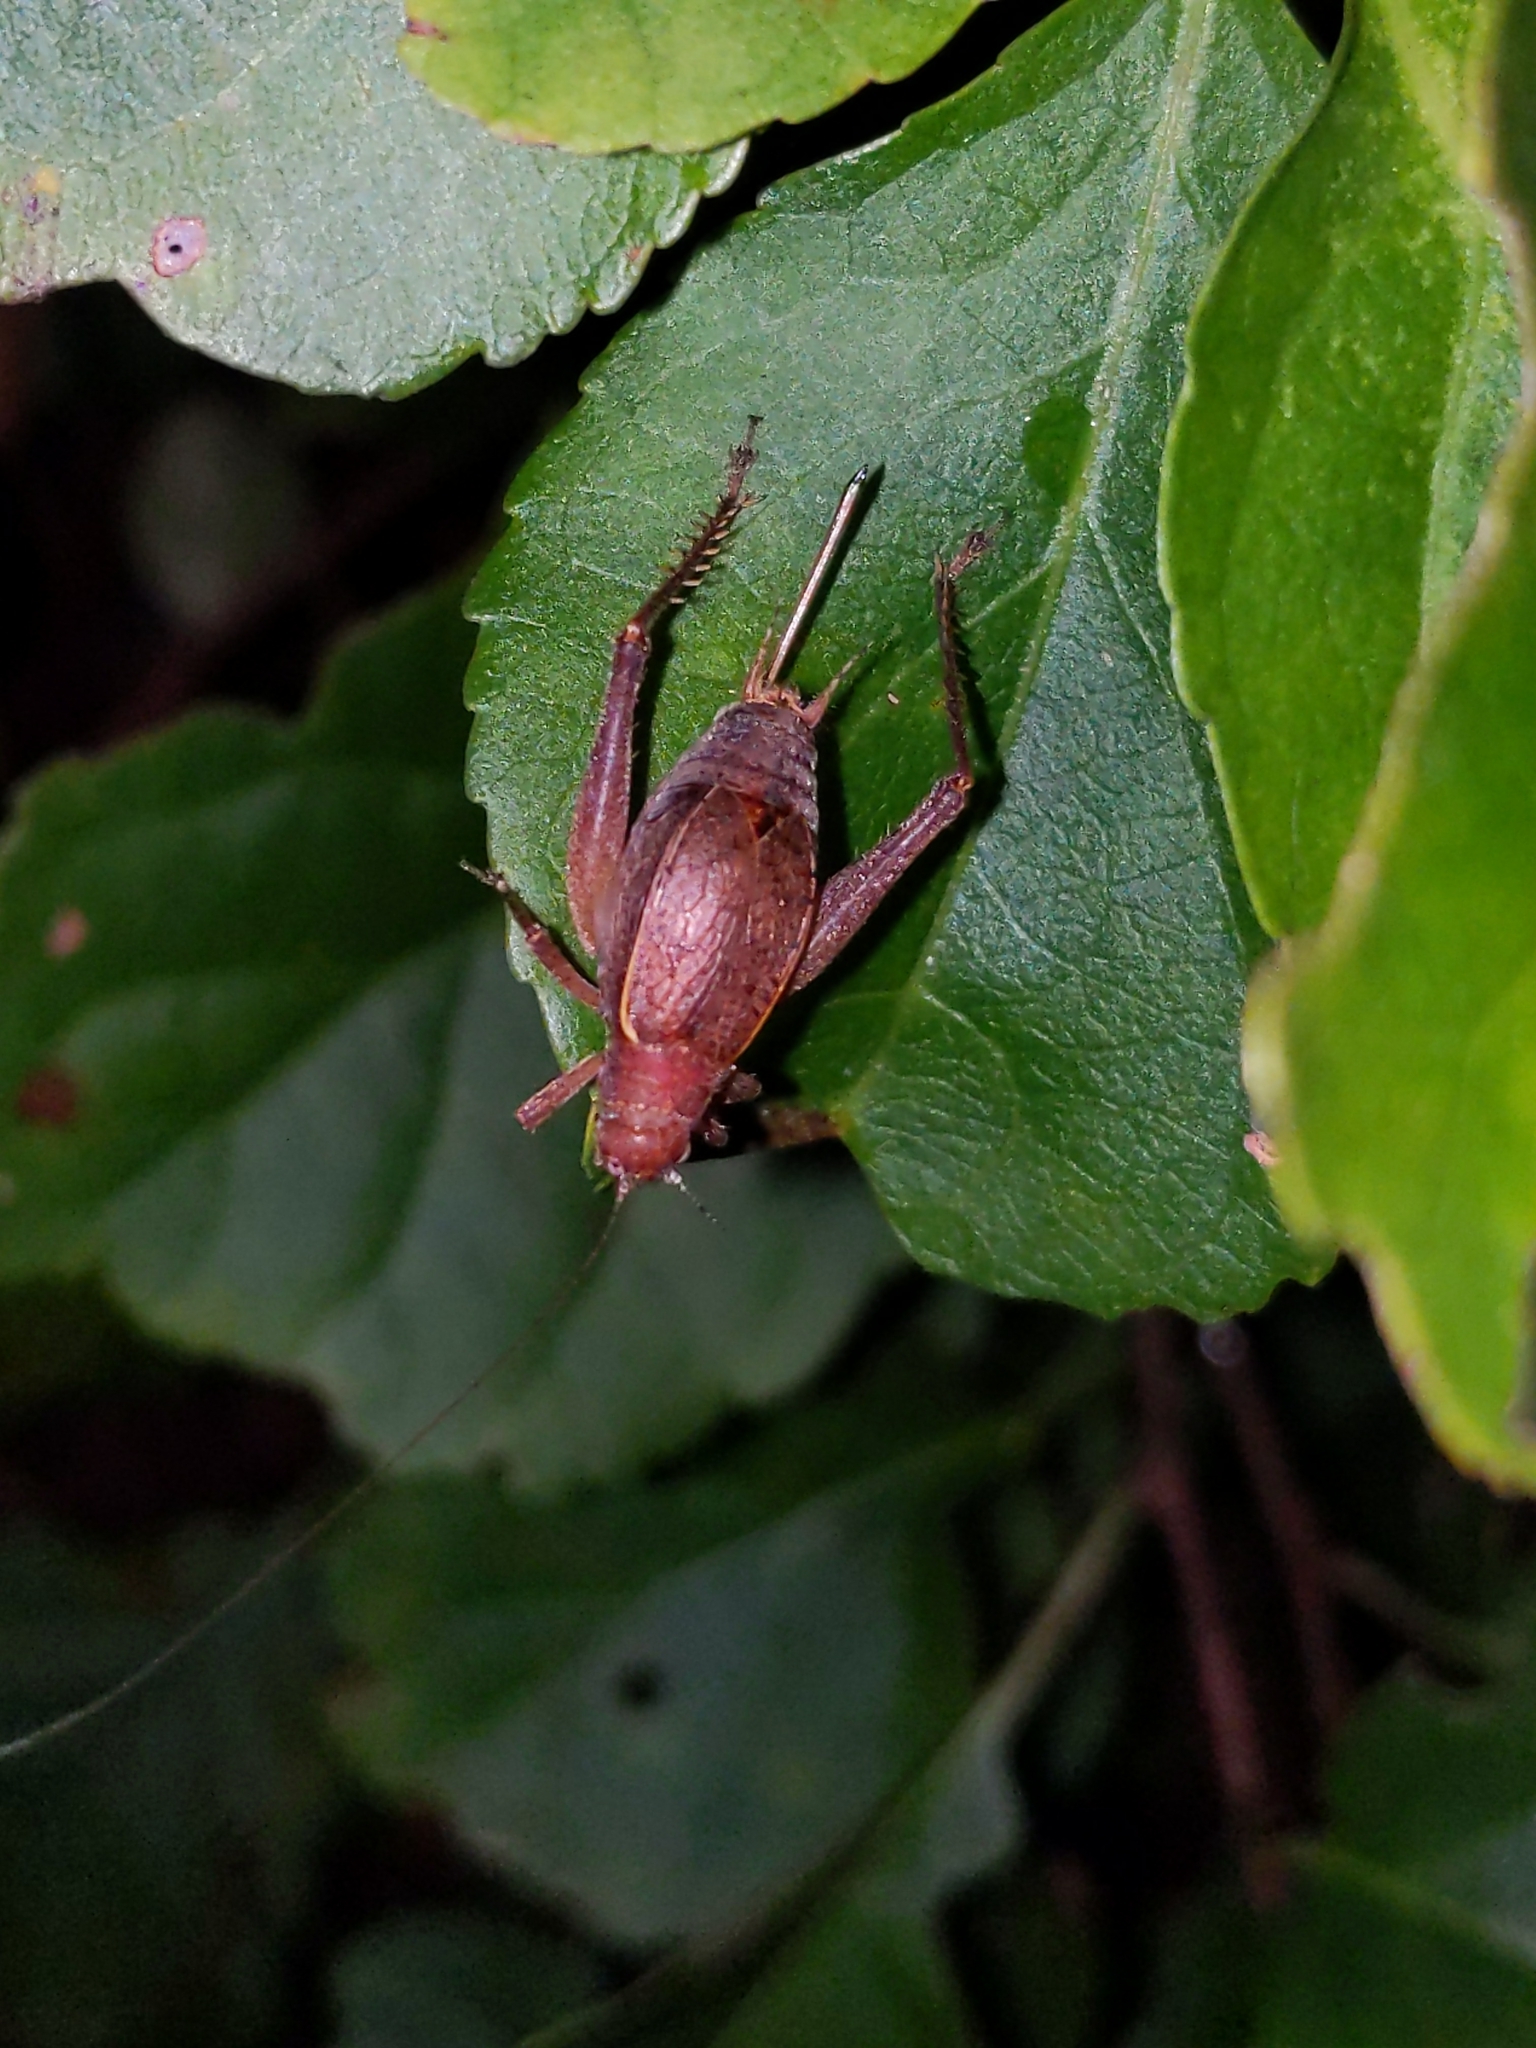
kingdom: Animalia
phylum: Arthropoda
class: Insecta
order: Orthoptera
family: Gryllidae
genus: Hapithus
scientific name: Hapithus agitator
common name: Restless bush cricket
